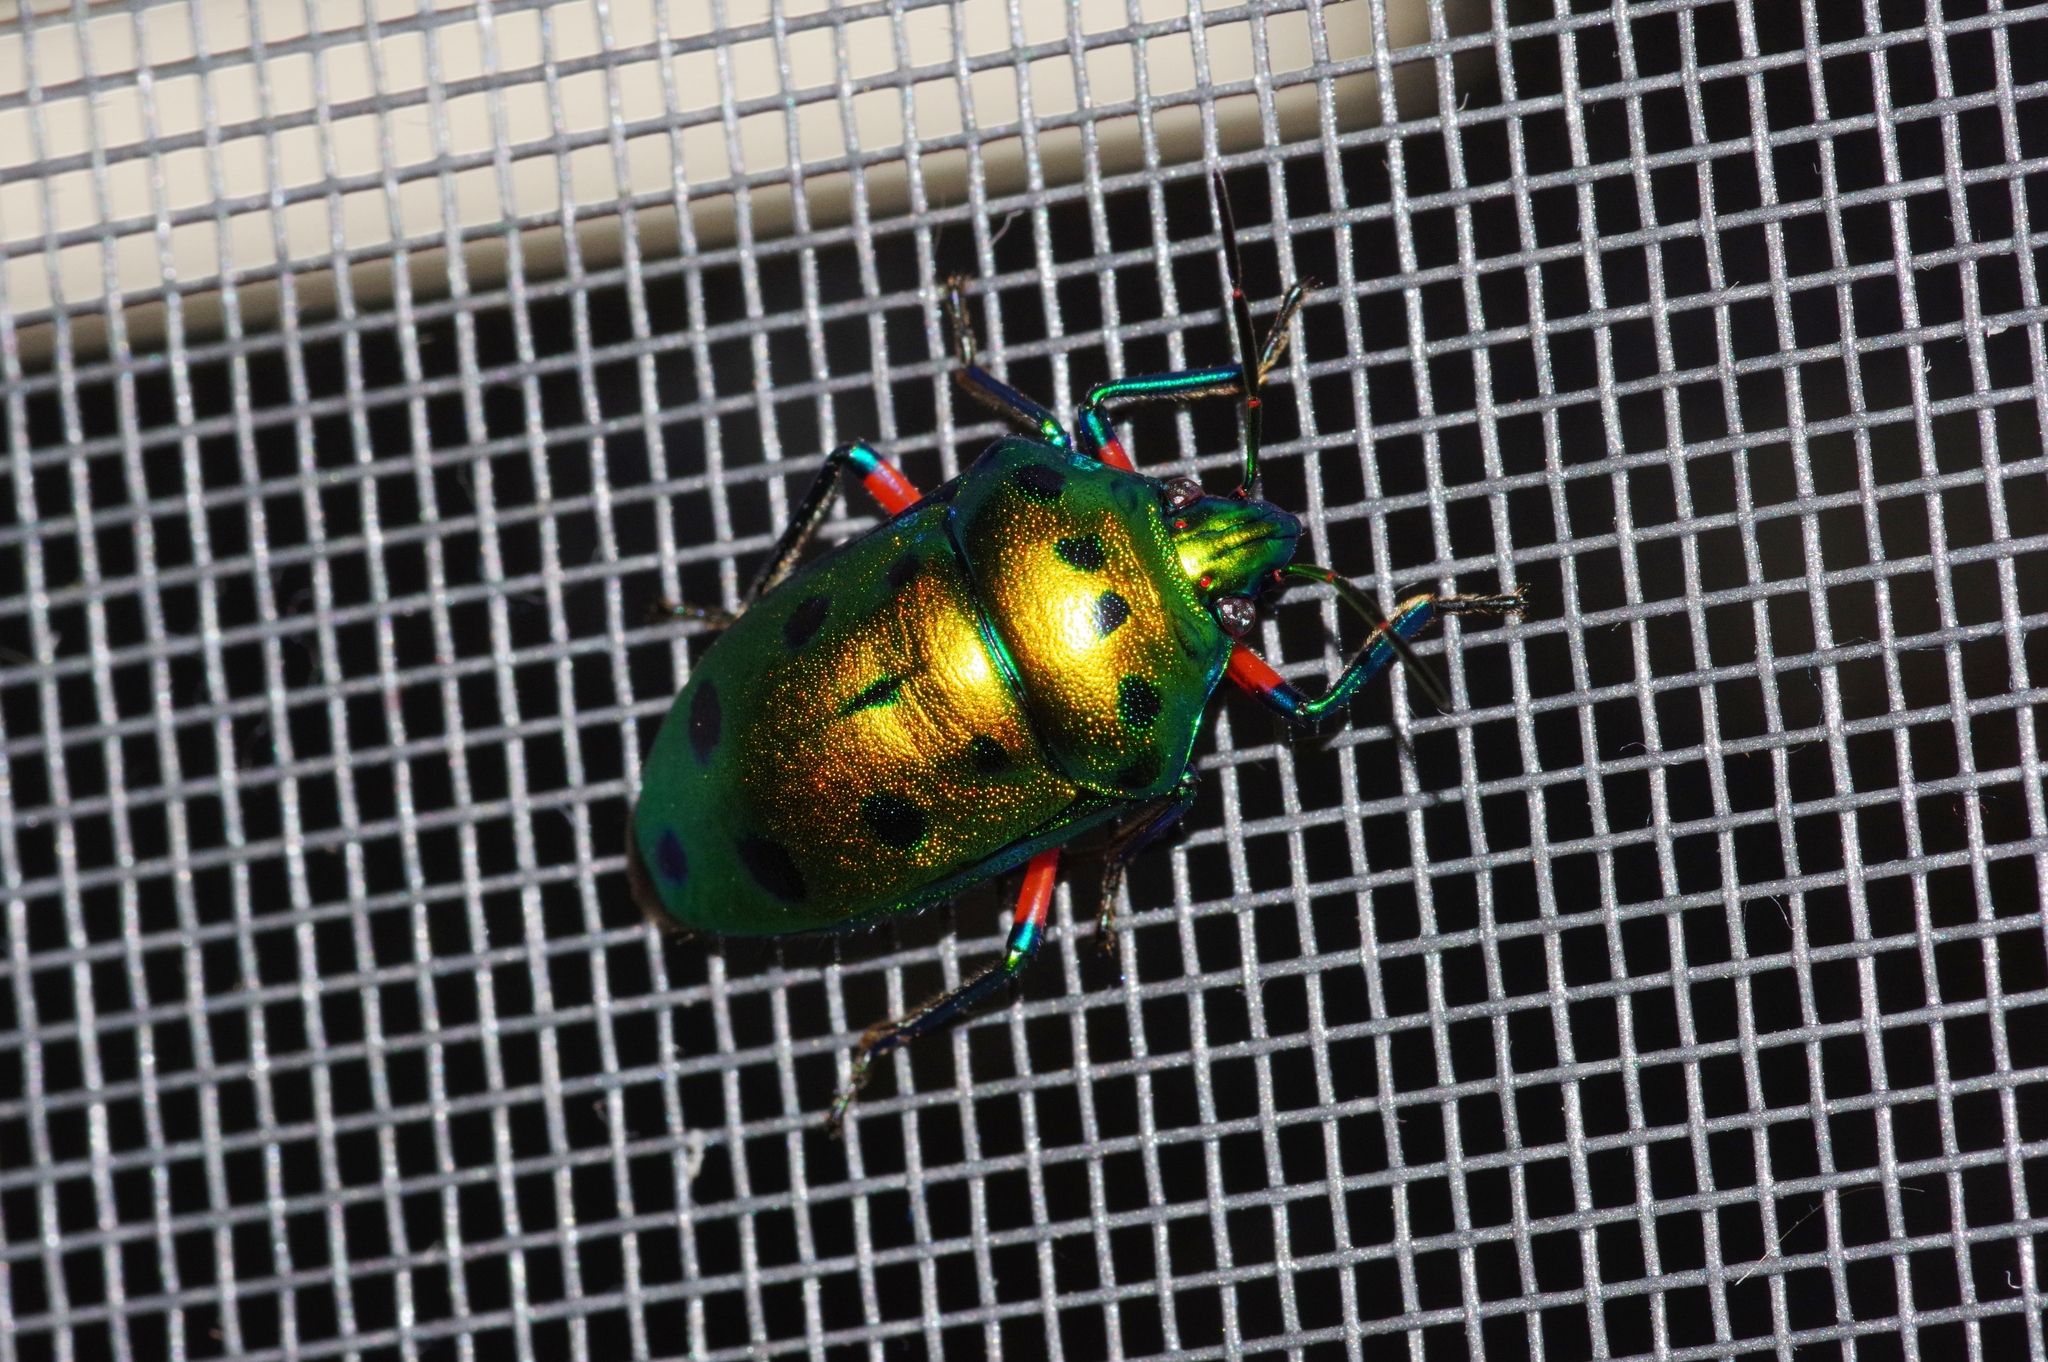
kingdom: Animalia
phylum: Arthropoda
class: Insecta
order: Hemiptera
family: Scutelleridae
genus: Calliphara
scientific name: Calliphara excellens
